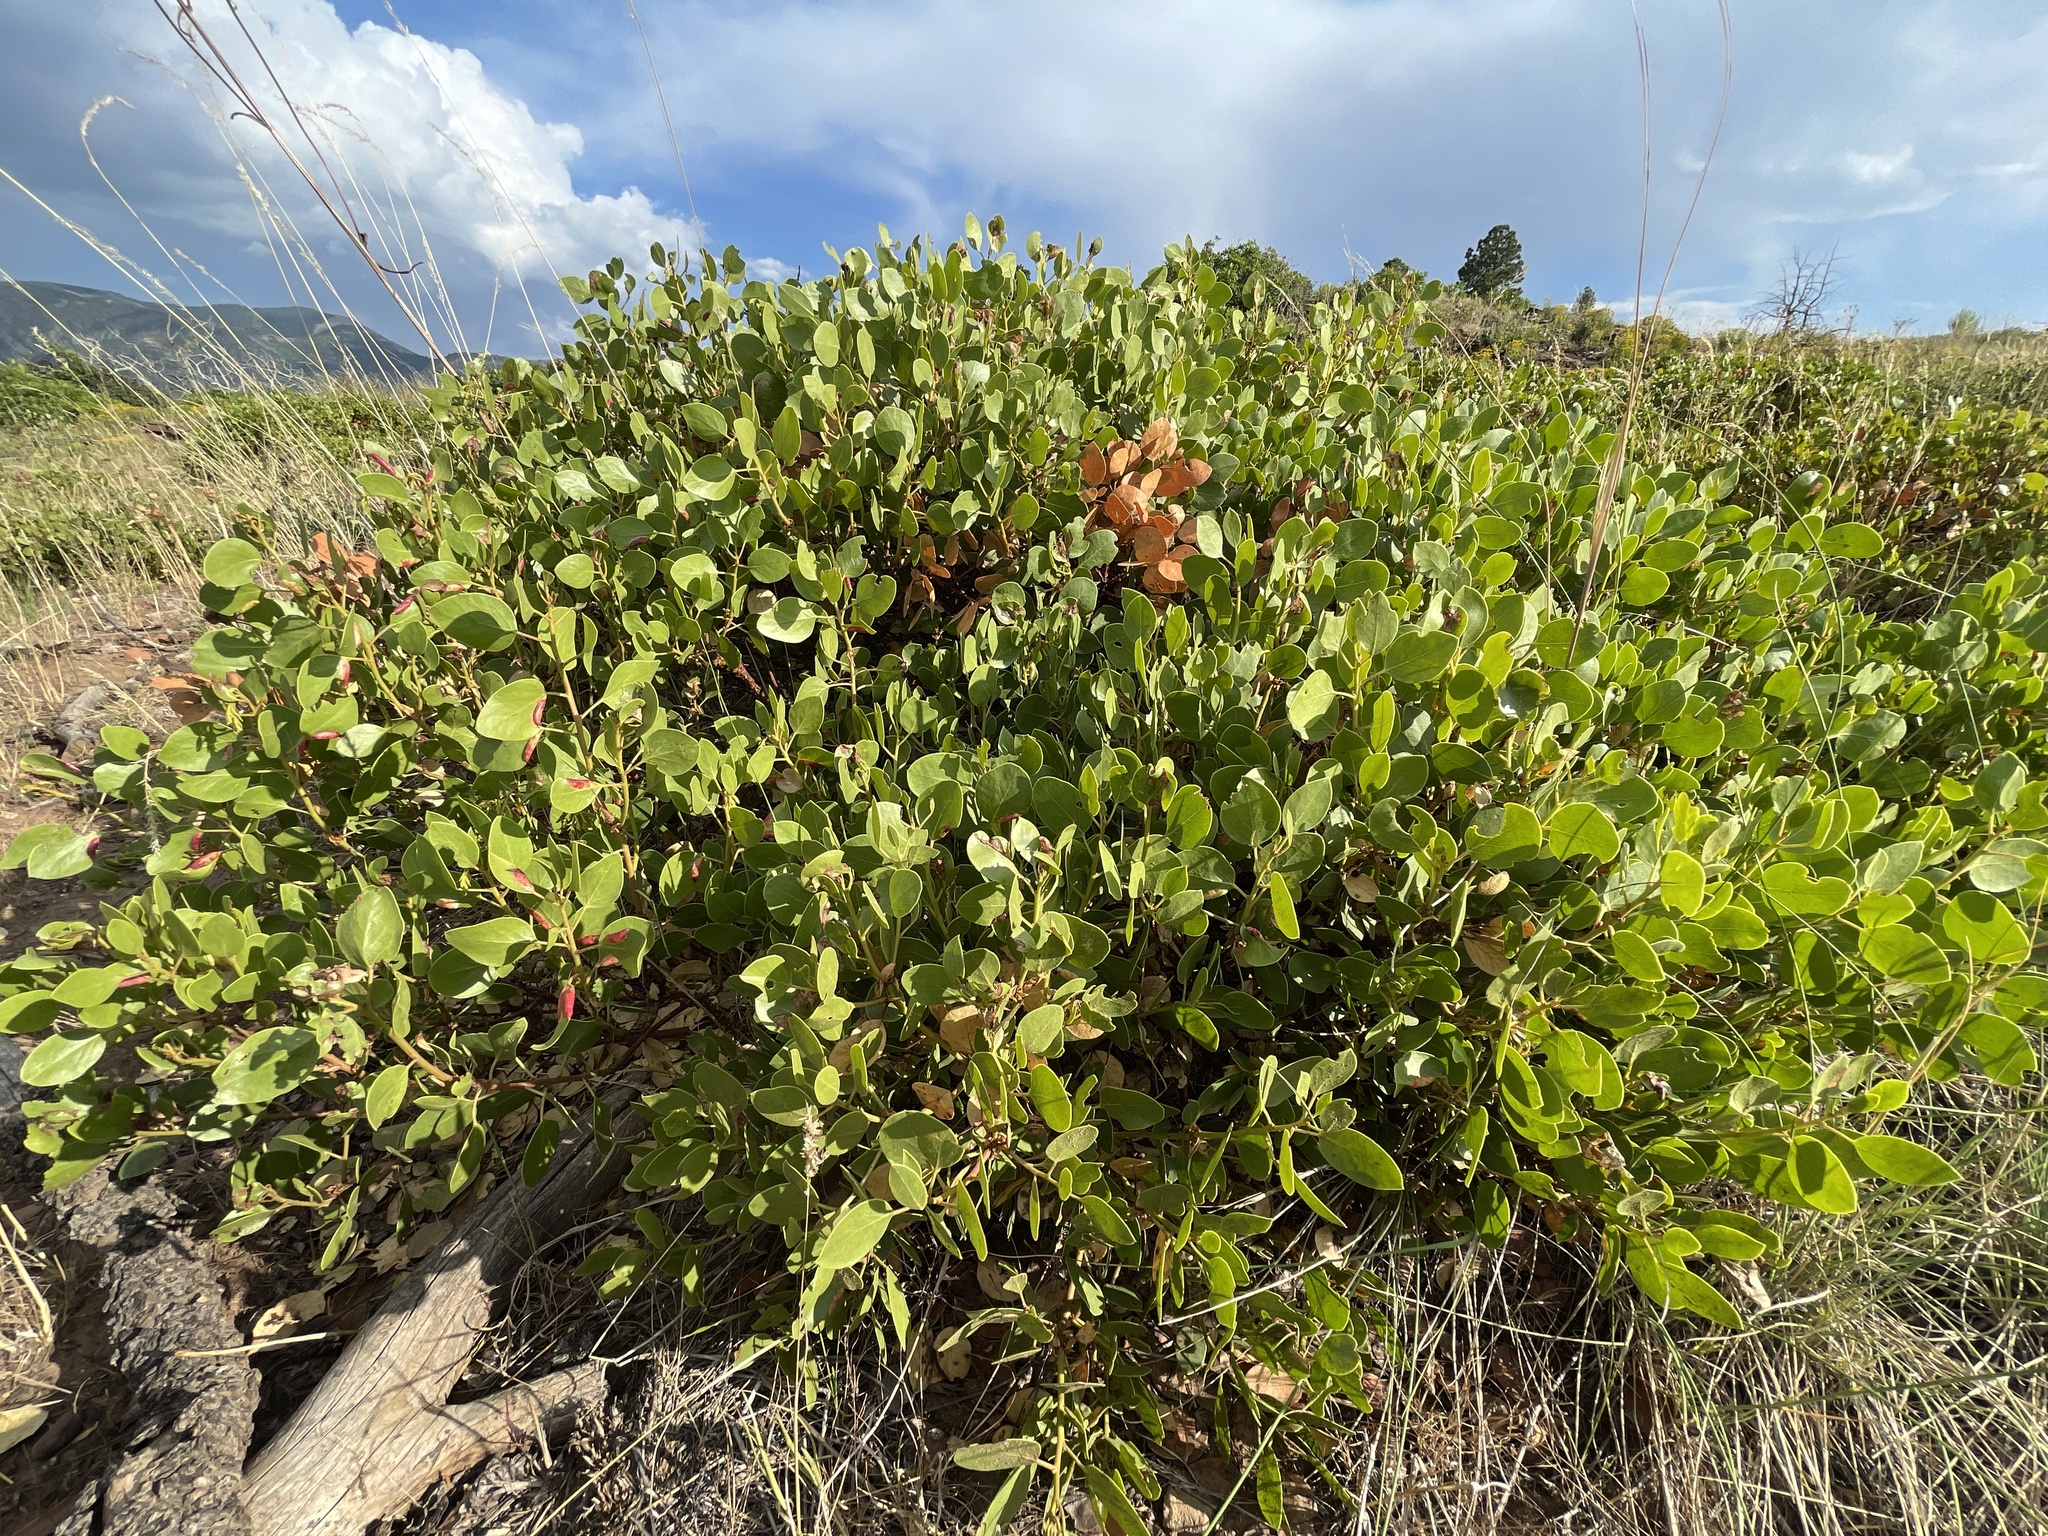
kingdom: Plantae
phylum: Tracheophyta
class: Magnoliopsida
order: Ericales
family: Ericaceae
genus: Arctostaphylos
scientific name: Arctostaphylos patula
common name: Green-leaf manzanita
